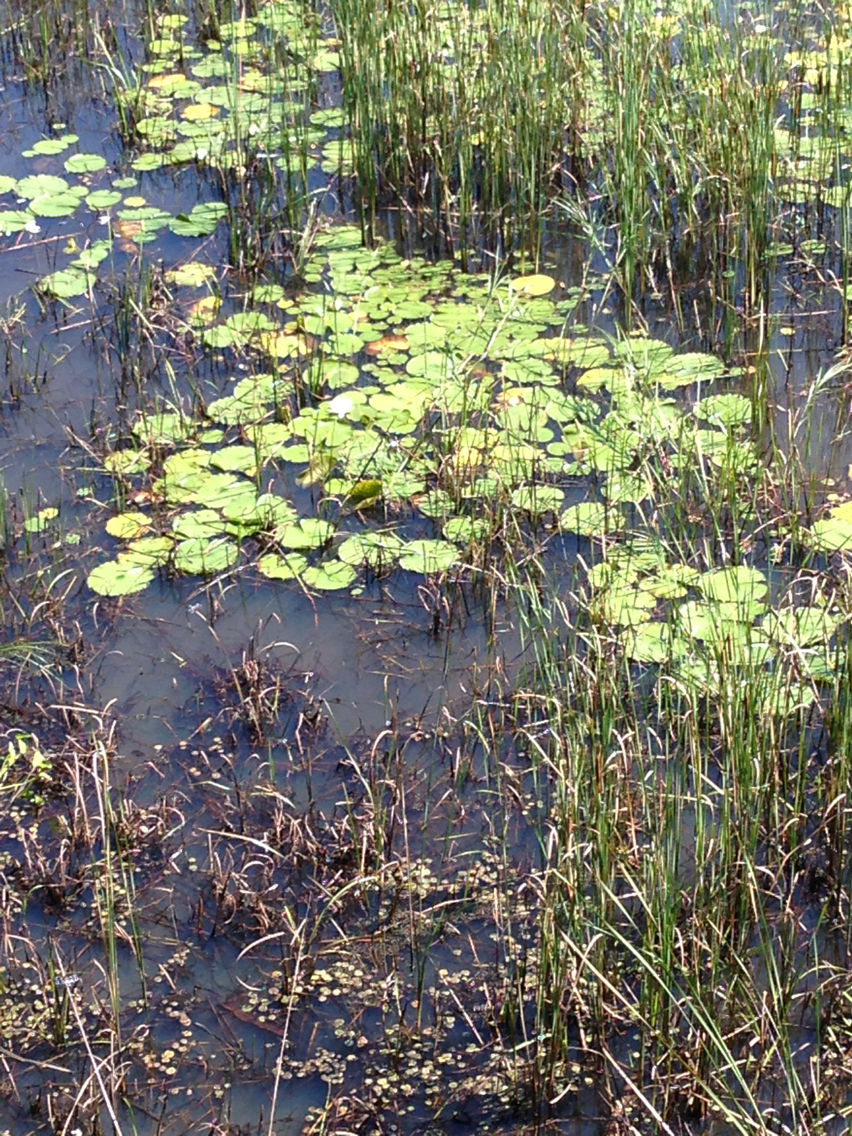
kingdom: Plantae
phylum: Tracheophyta
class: Magnoliopsida
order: Nymphaeales
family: Nymphaeaceae
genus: Nymphaea
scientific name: Nymphaea odorata
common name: Fragrant water-lily
